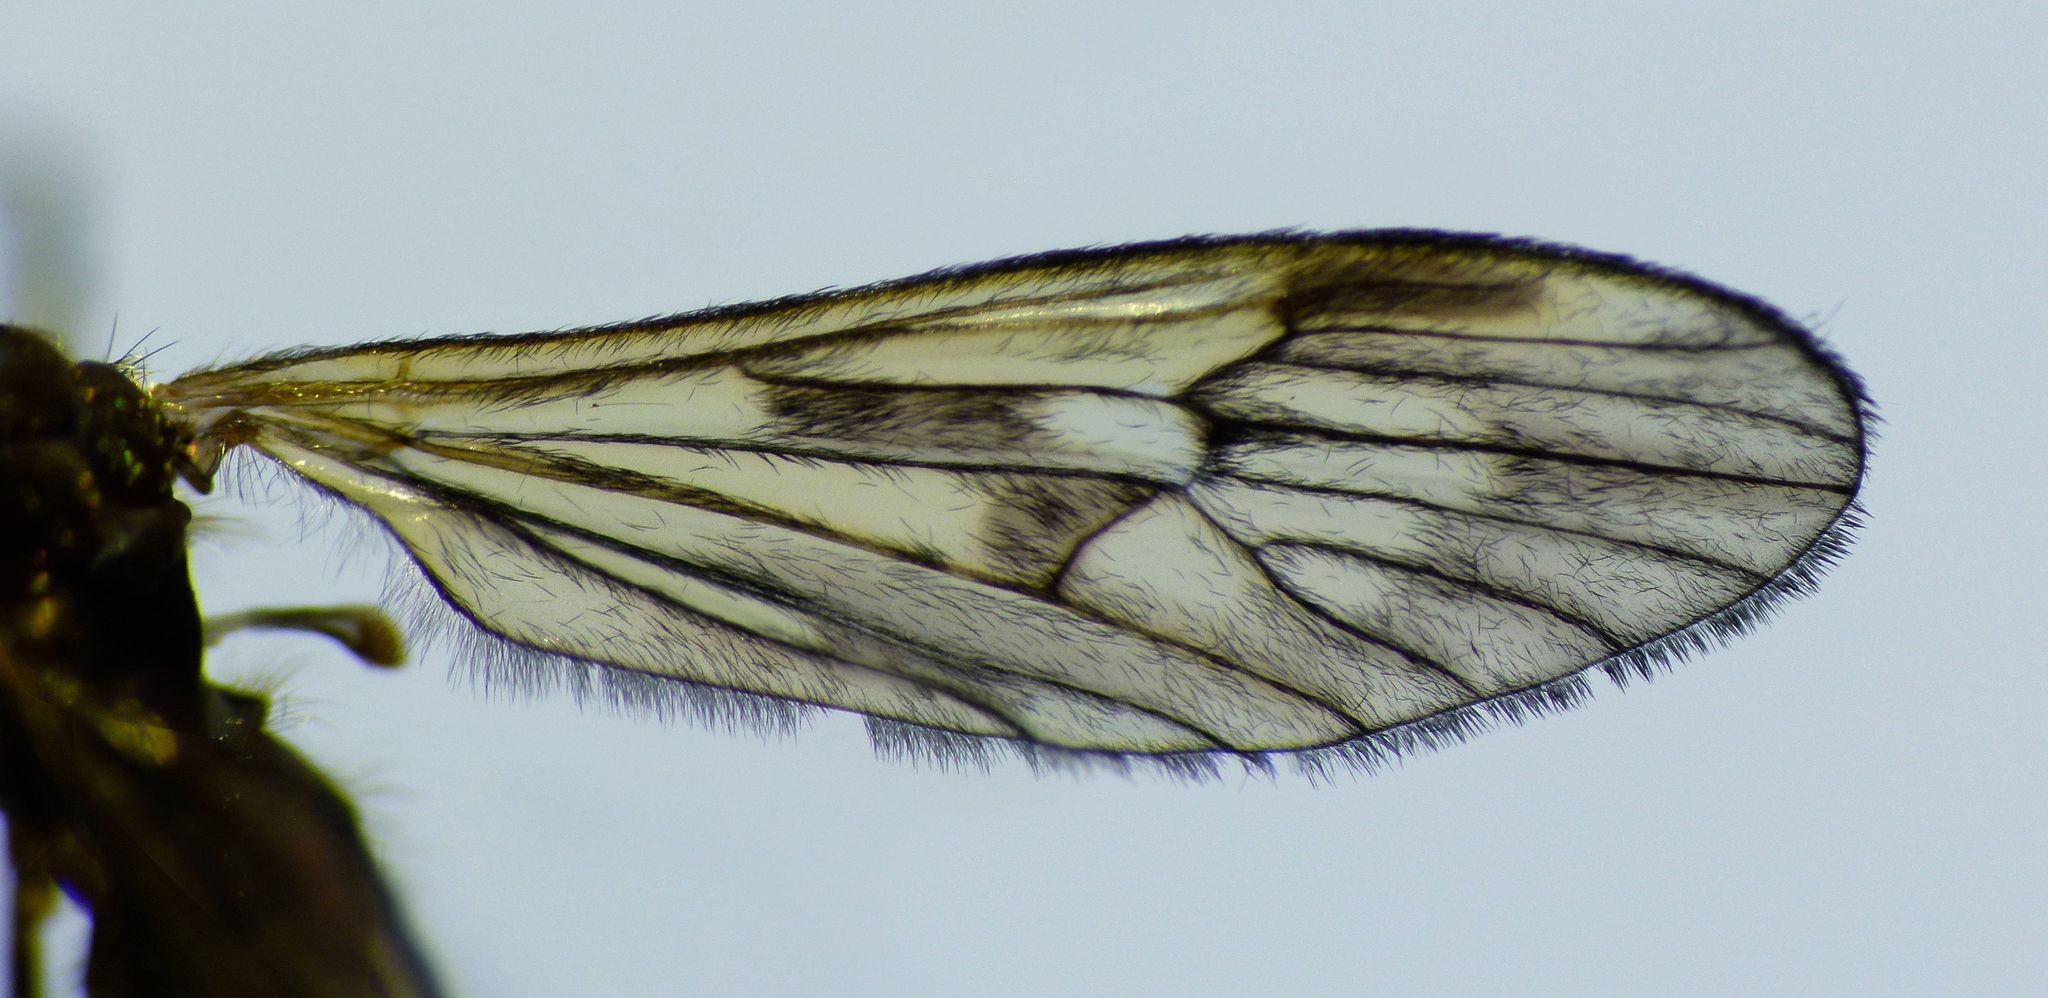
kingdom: Animalia
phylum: Arthropoda
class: Insecta
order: Diptera
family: Limoniidae
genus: Amphineurus
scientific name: Amphineurus fatuus
